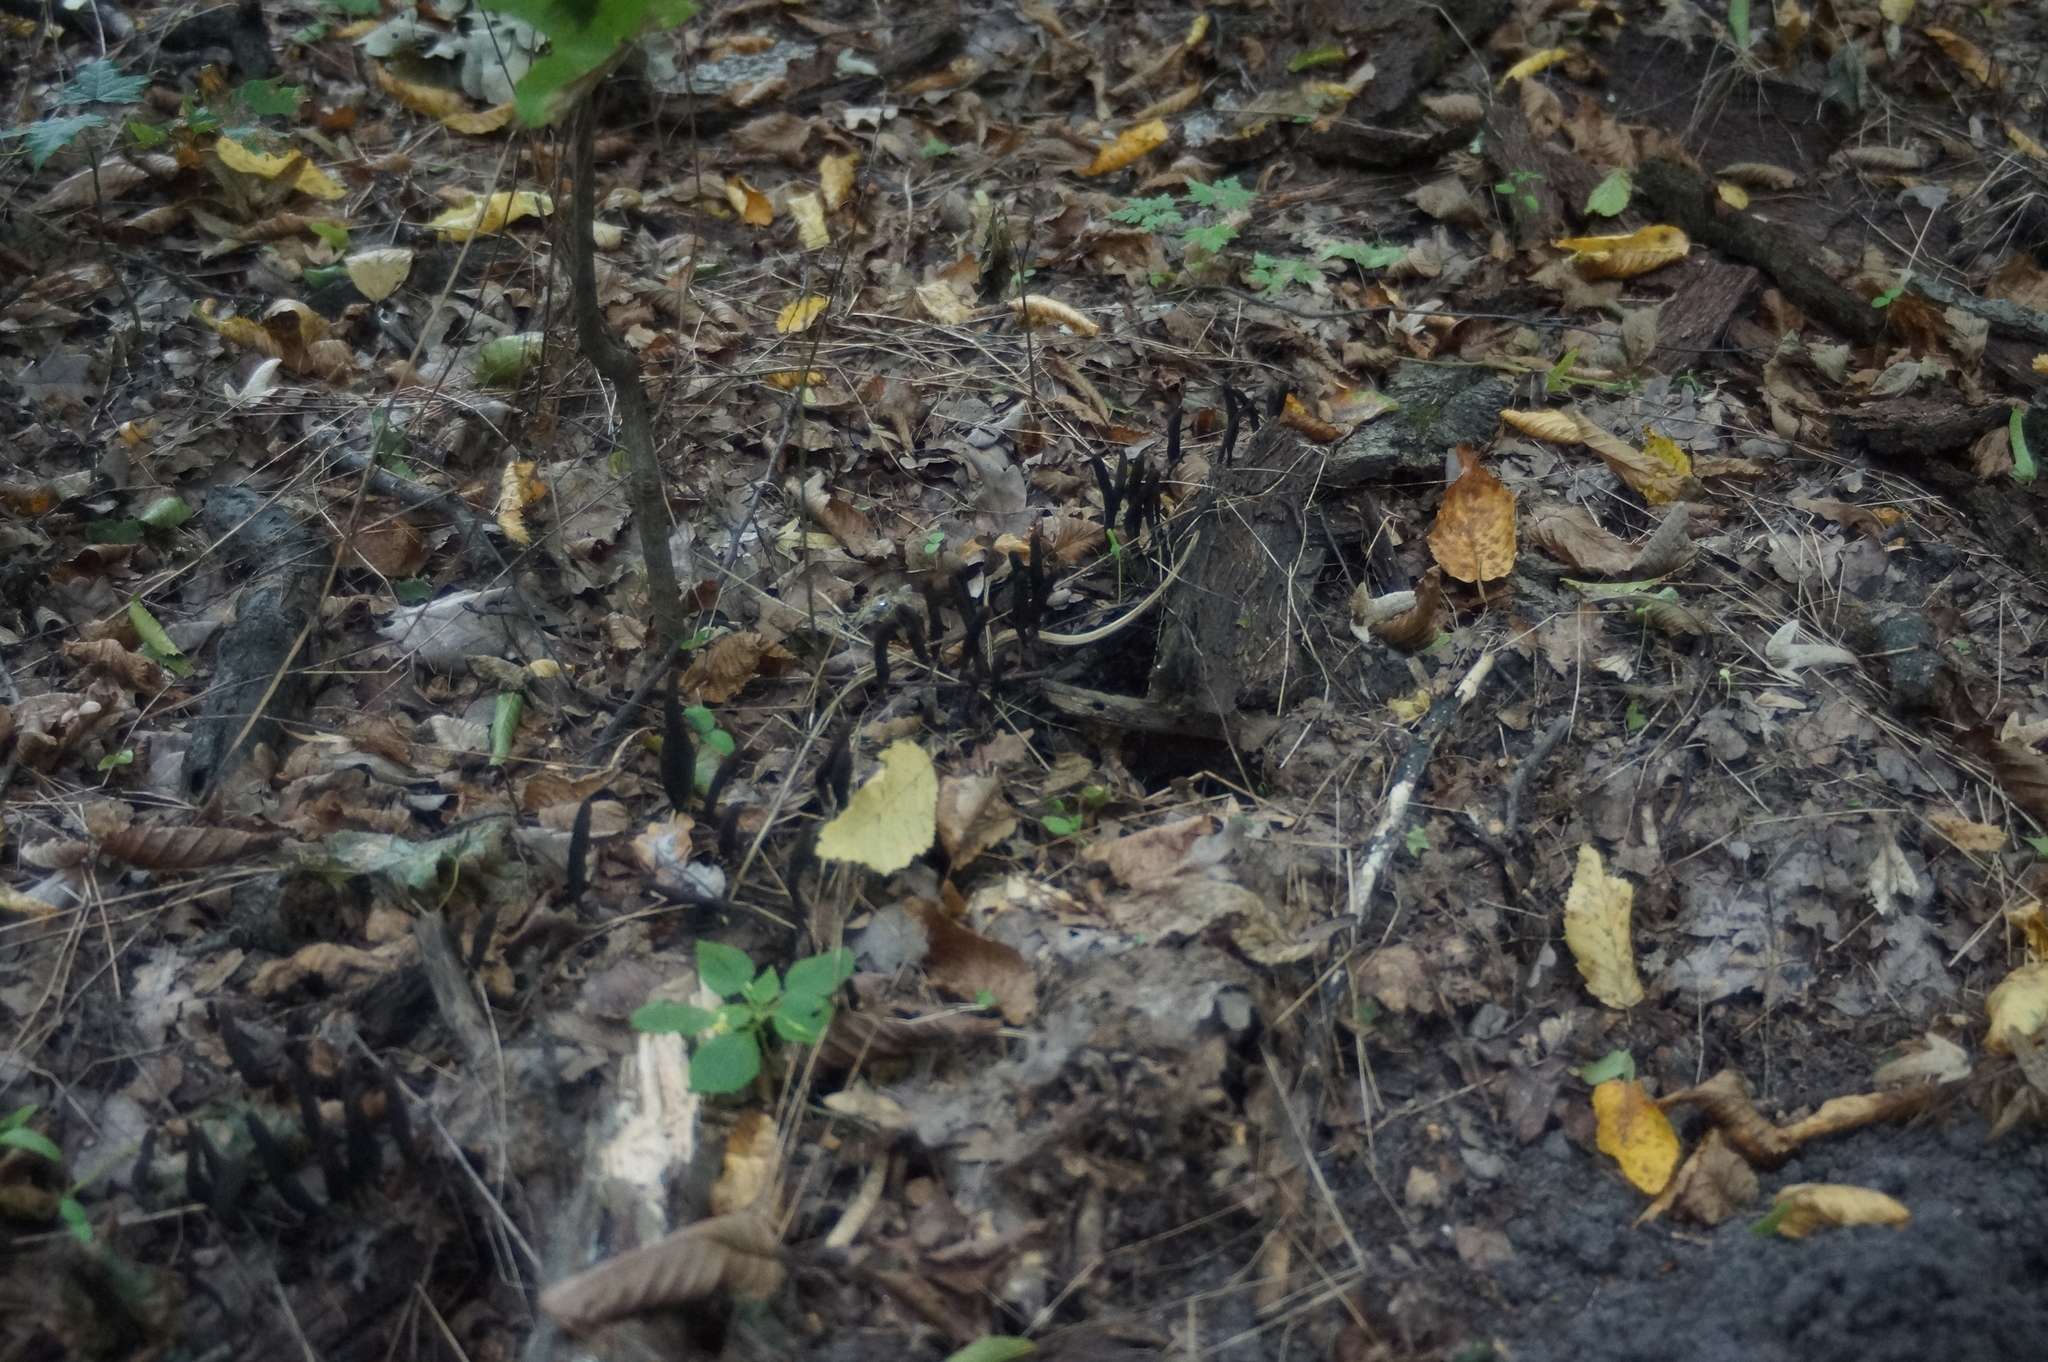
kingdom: Fungi
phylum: Ascomycota
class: Sordariomycetes
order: Xylariales
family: Xylariaceae
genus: Xylaria
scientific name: Xylaria polymorpha
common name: Dead man's fingers
